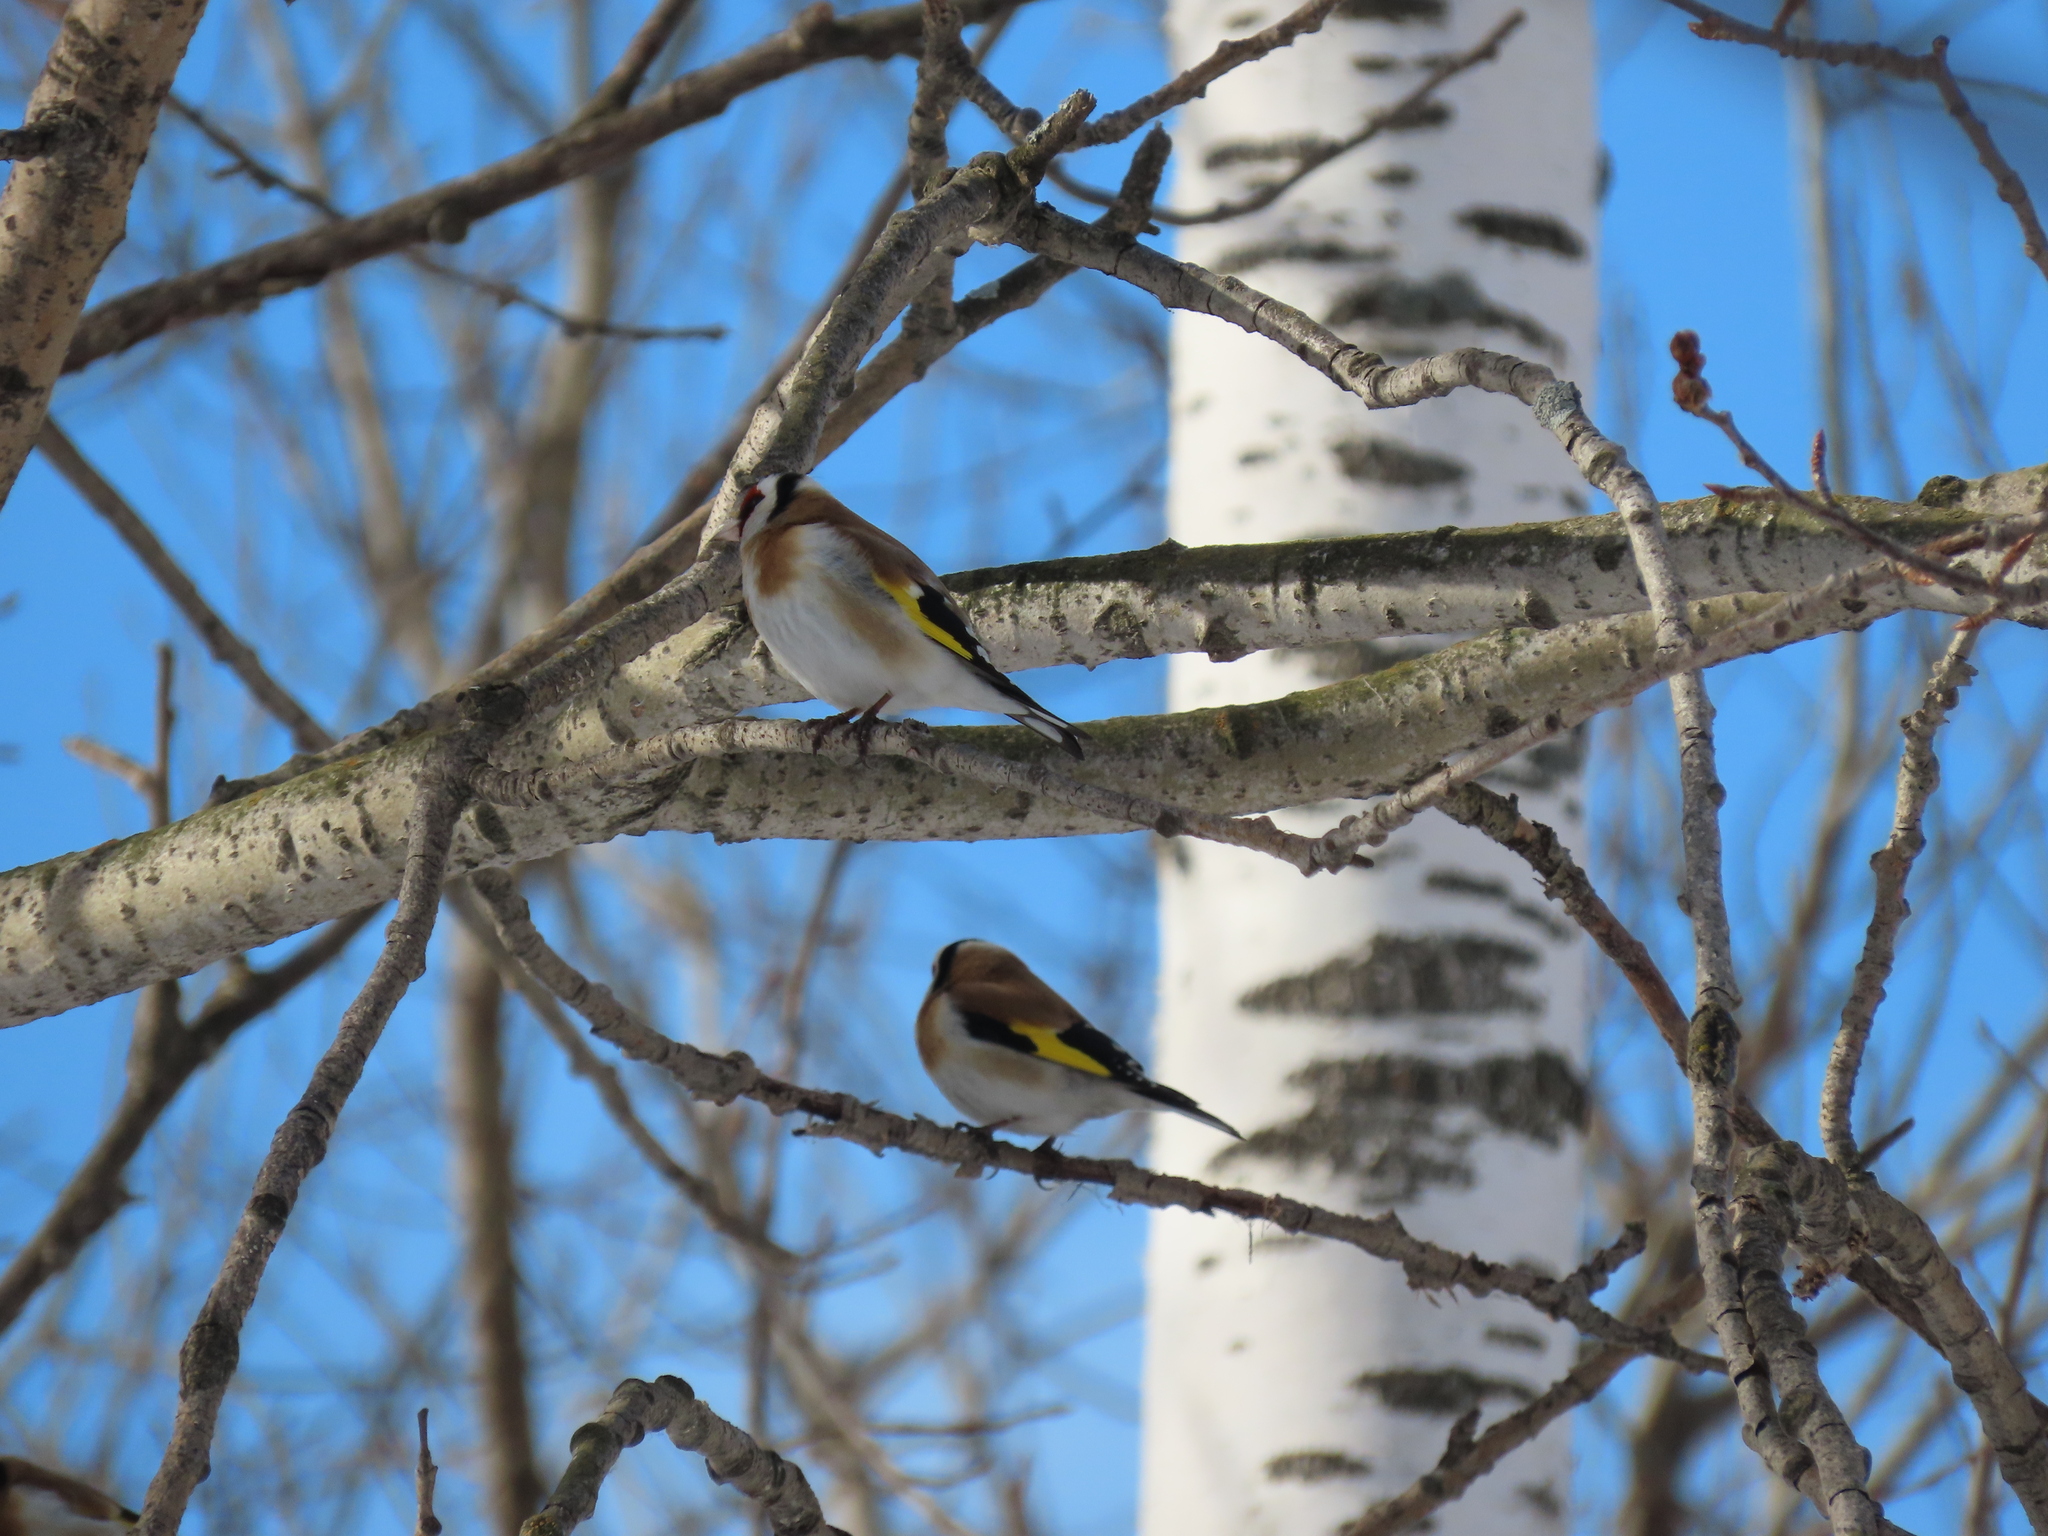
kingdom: Animalia
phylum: Chordata
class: Aves
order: Passeriformes
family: Fringillidae
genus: Carduelis
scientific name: Carduelis carduelis
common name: European goldfinch
